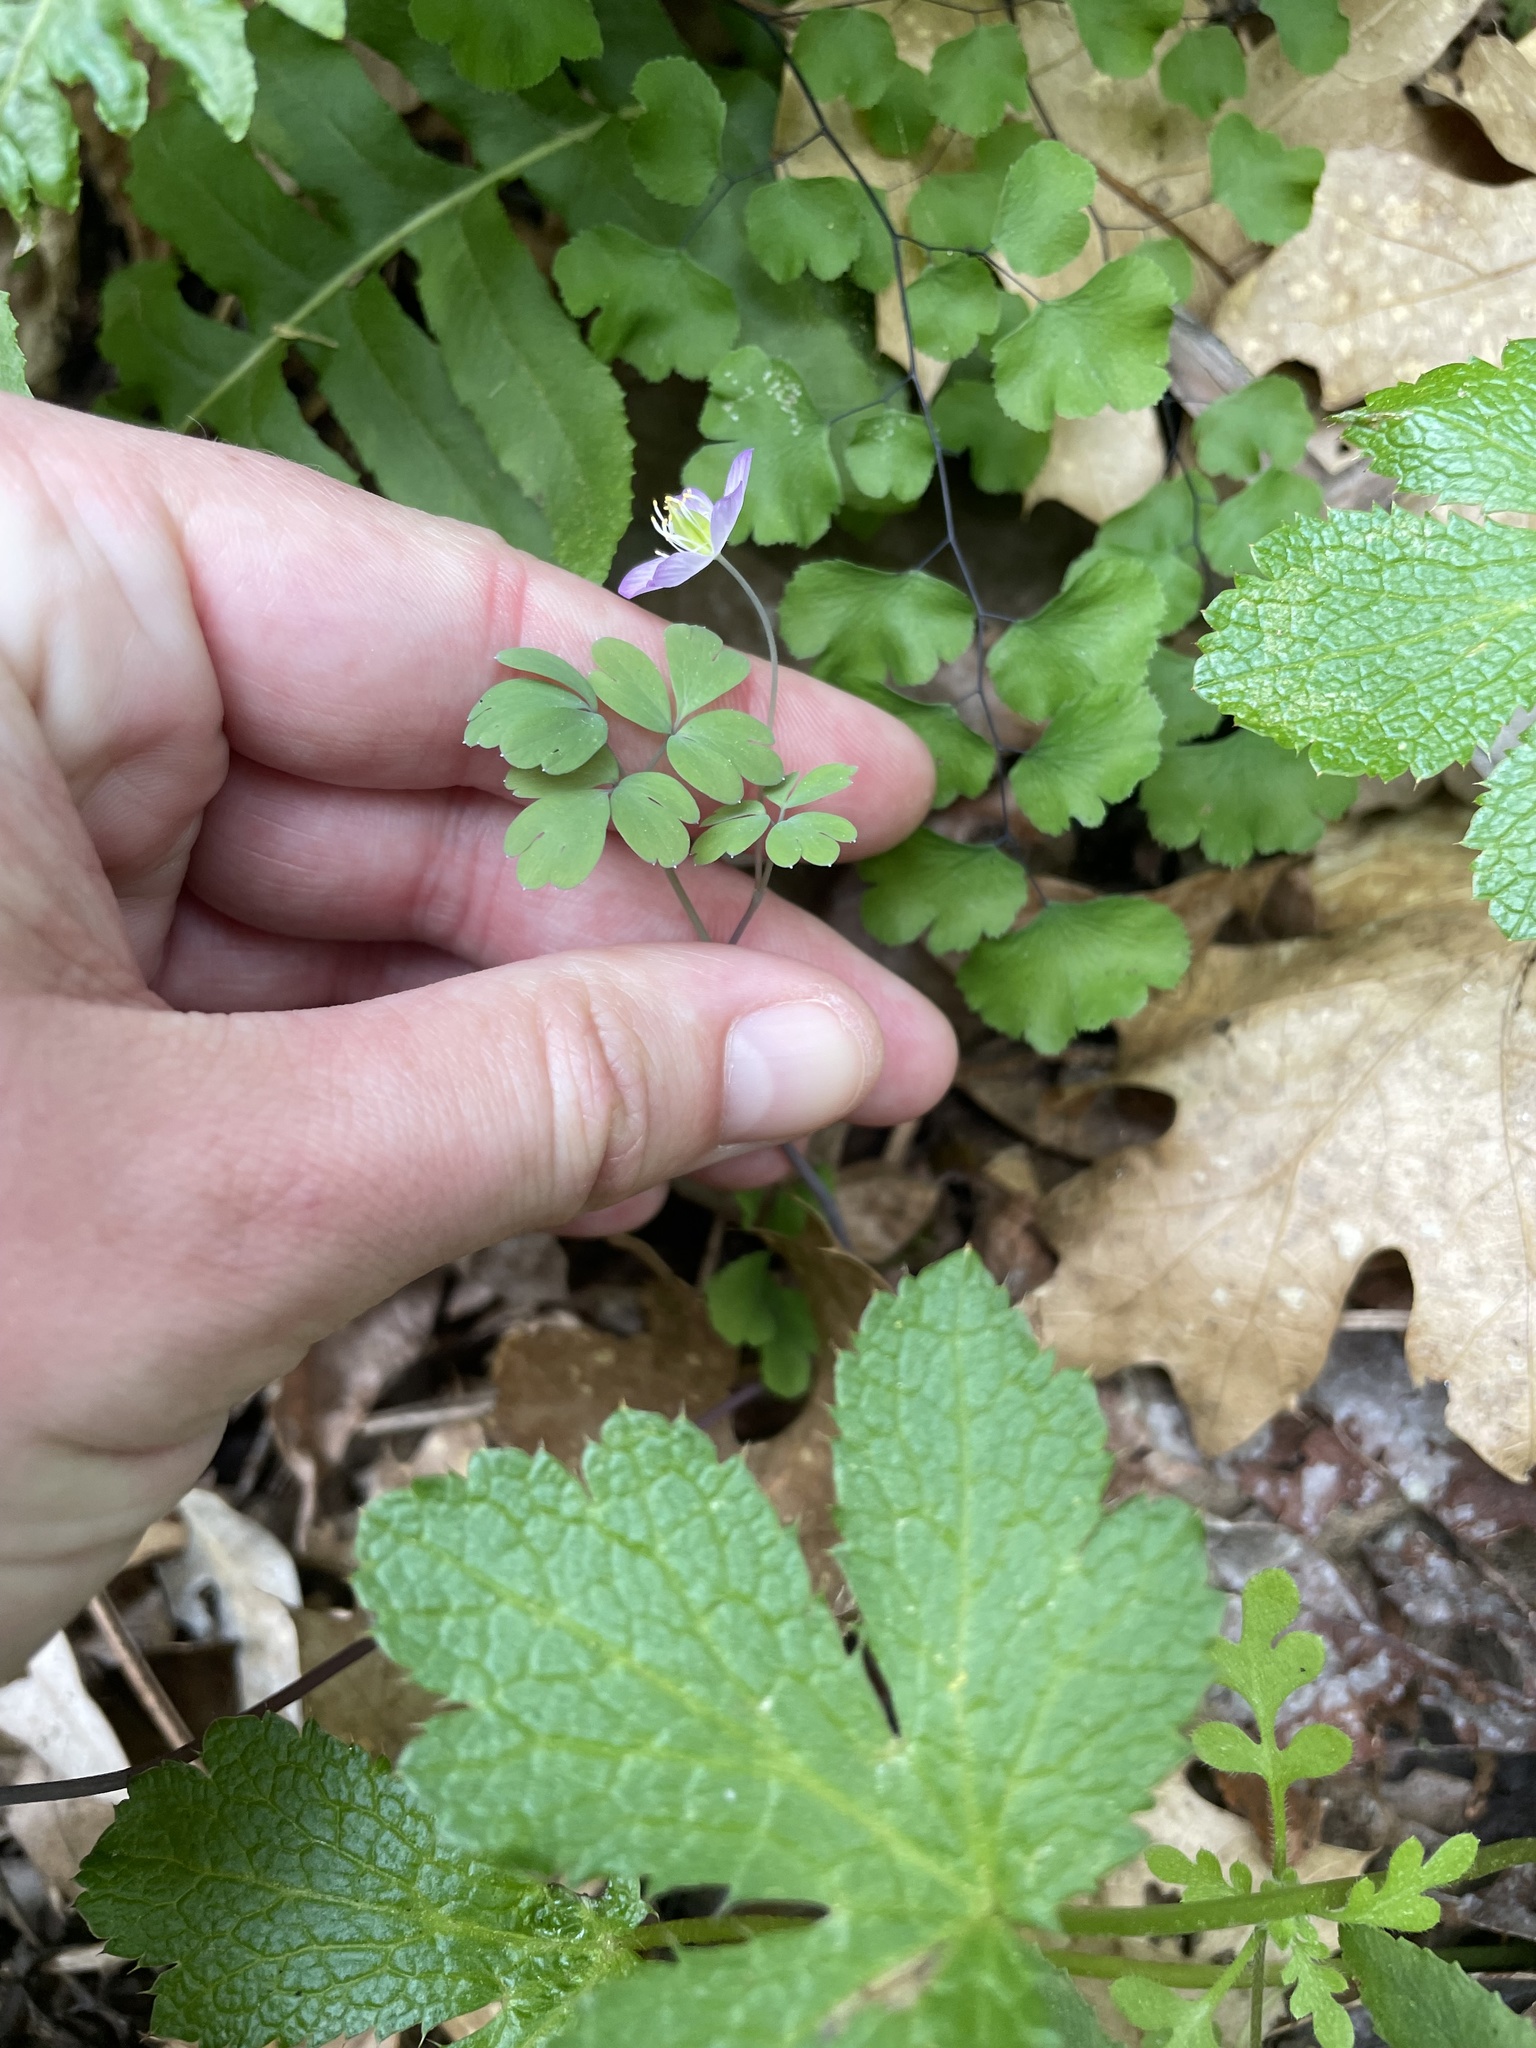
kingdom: Plantae
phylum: Tracheophyta
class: Magnoliopsida
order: Ranunculales
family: Ranunculaceae
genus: Enemion
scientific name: Enemion occidentale
